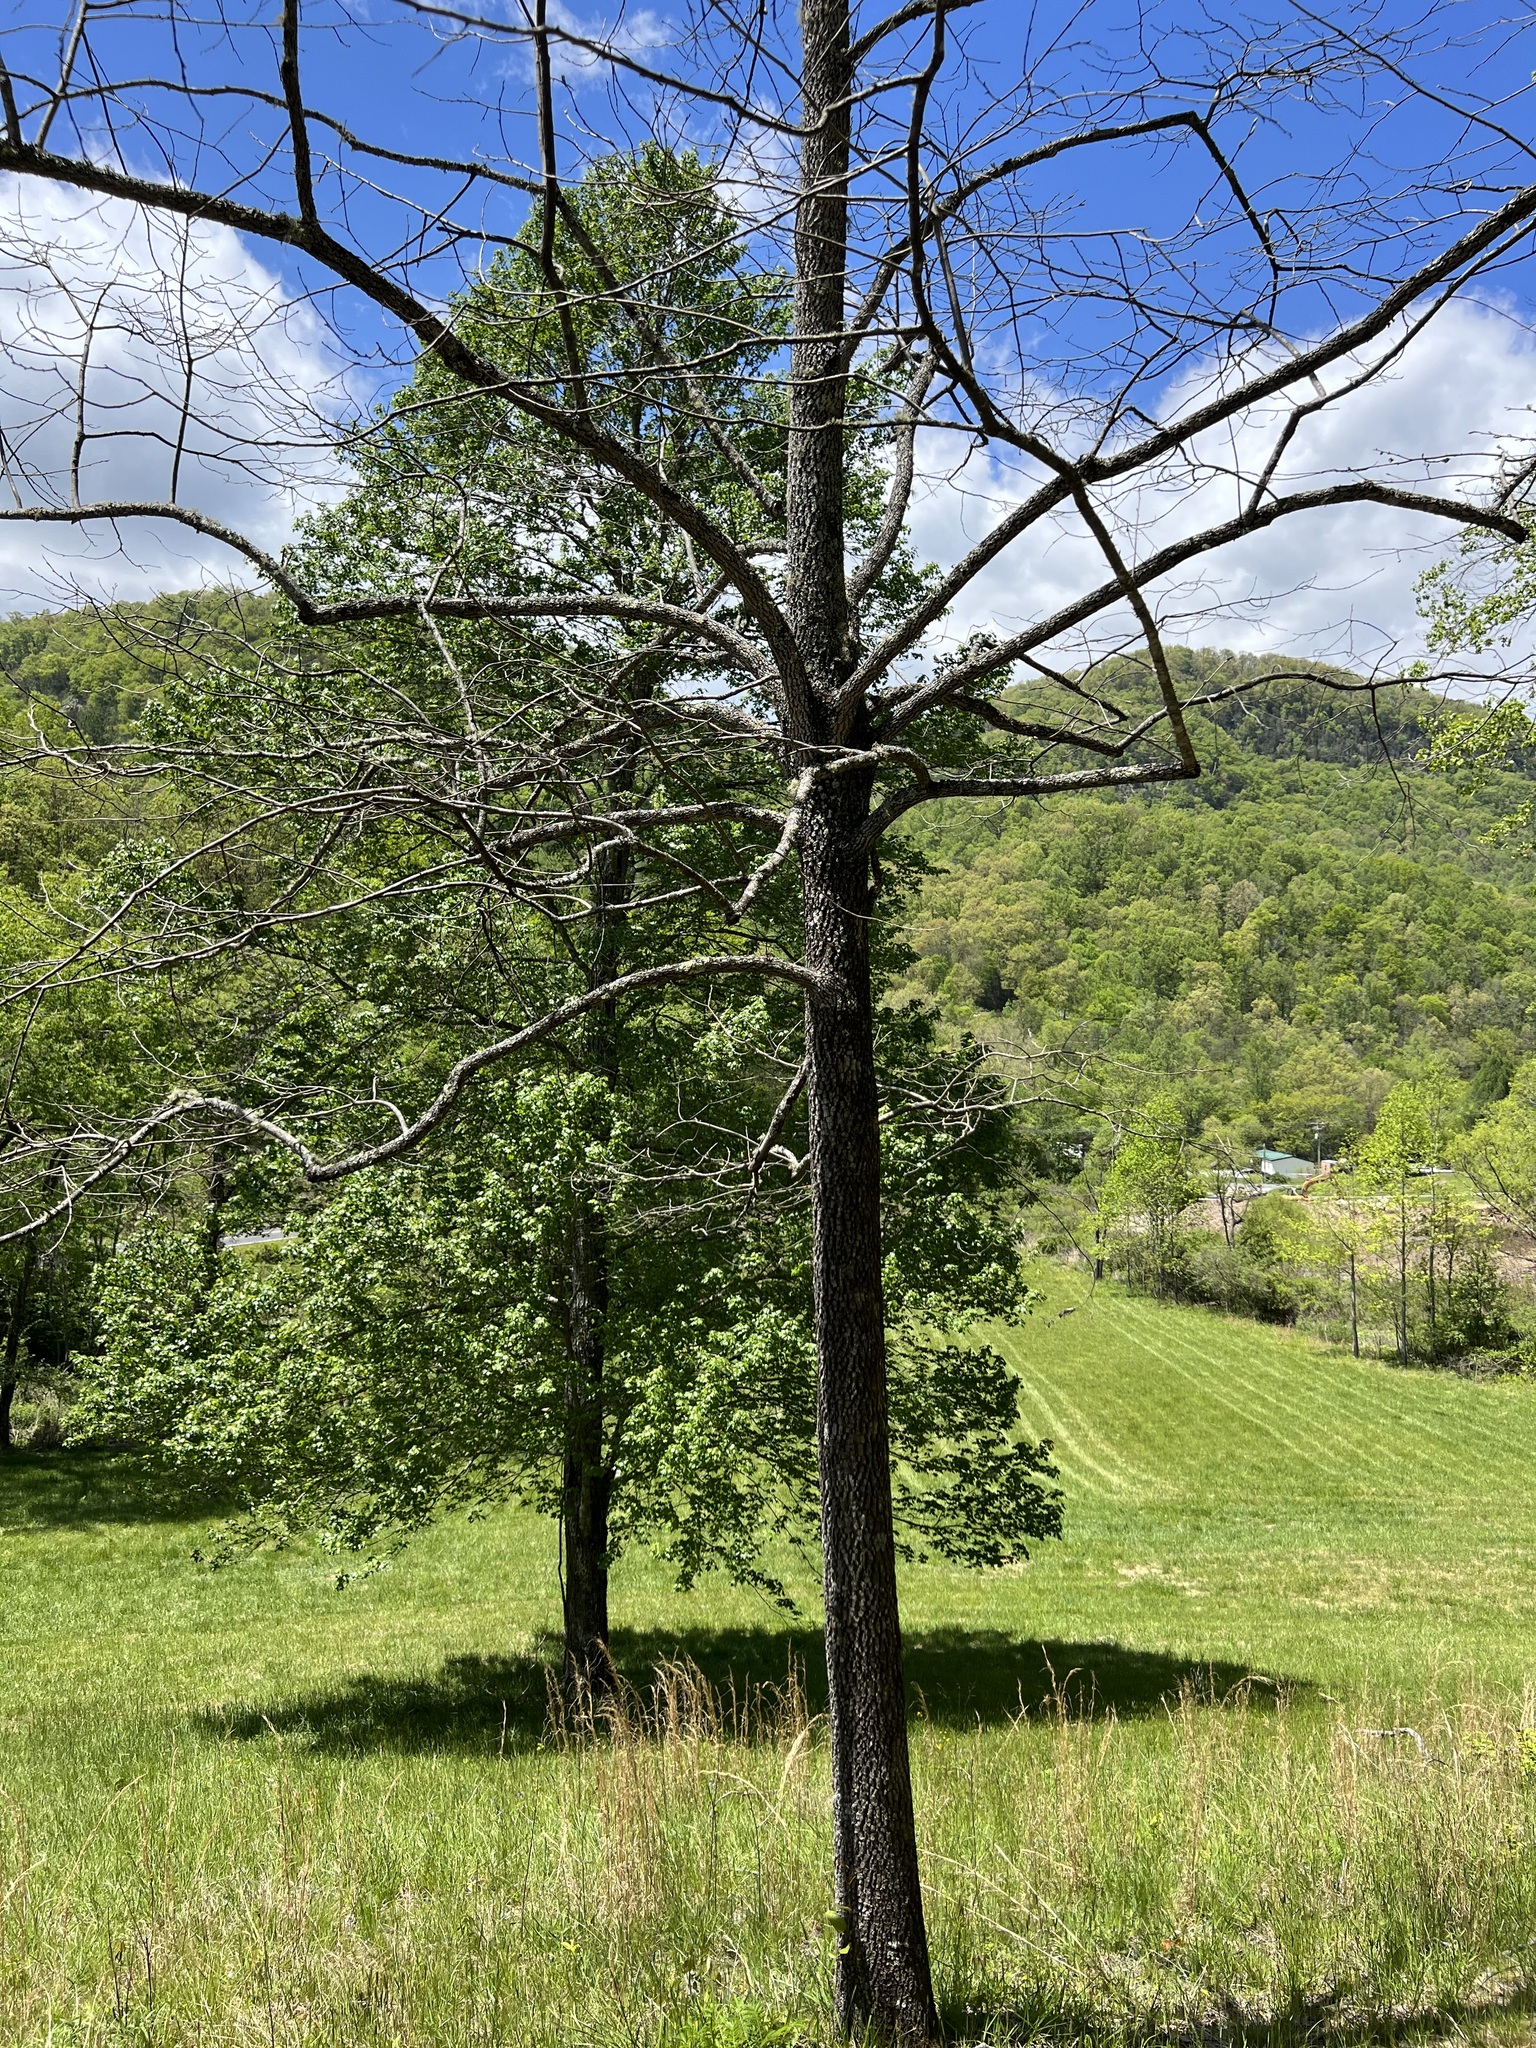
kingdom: Plantae
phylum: Tracheophyta
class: Magnoliopsida
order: Ericales
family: Ebenaceae
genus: Diospyros
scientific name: Diospyros virginiana
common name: Persimmon
